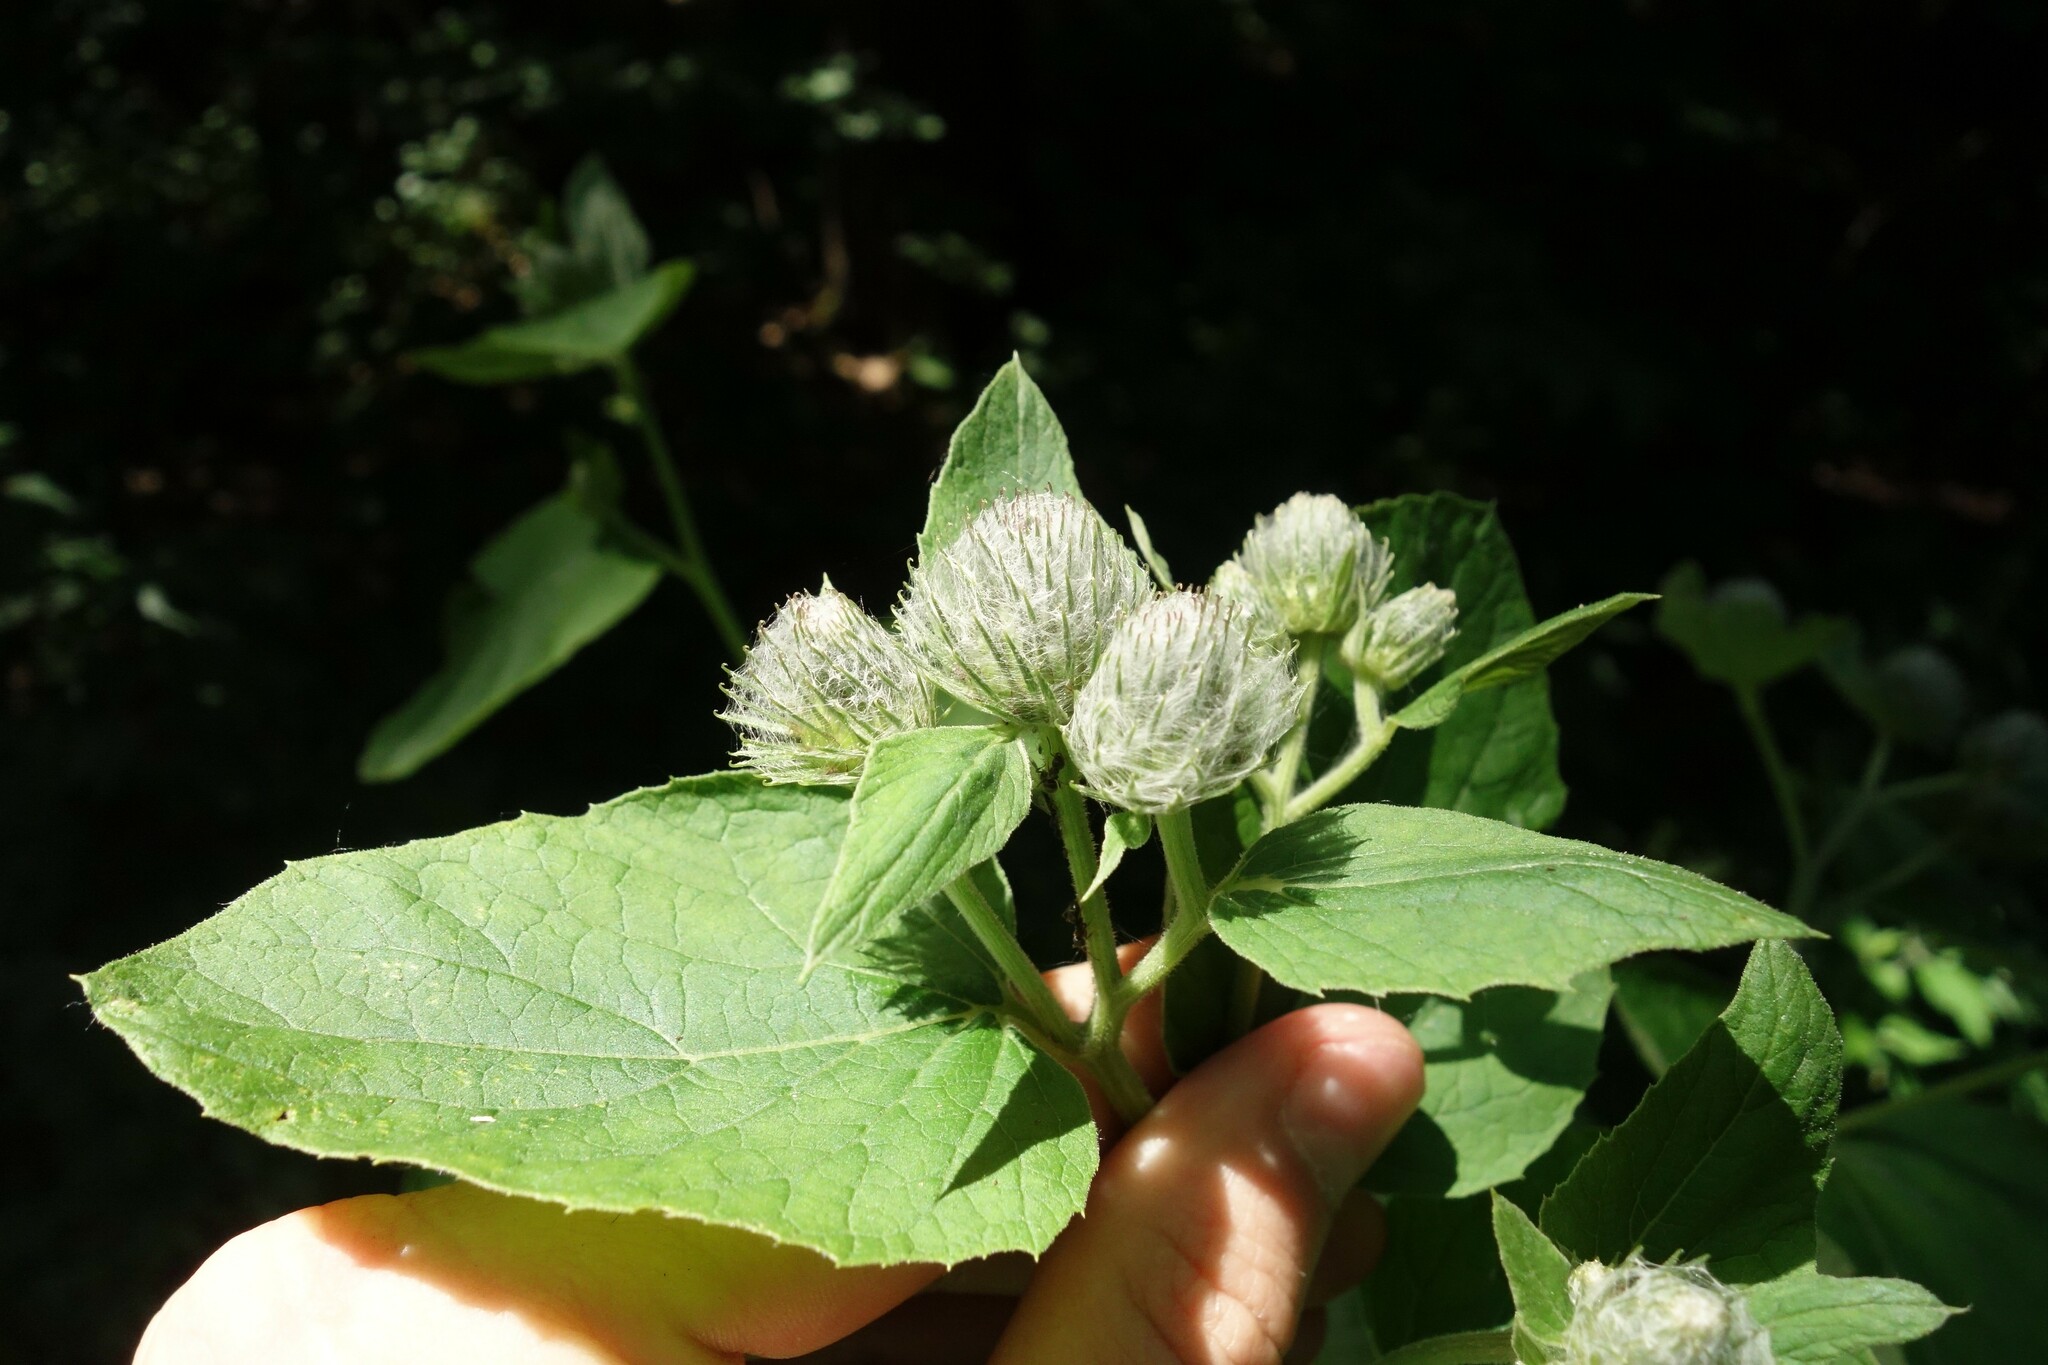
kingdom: Plantae
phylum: Tracheophyta
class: Magnoliopsida
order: Asterales
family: Asteraceae
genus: Arctium
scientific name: Arctium tomentosum
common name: Woolly burdock
